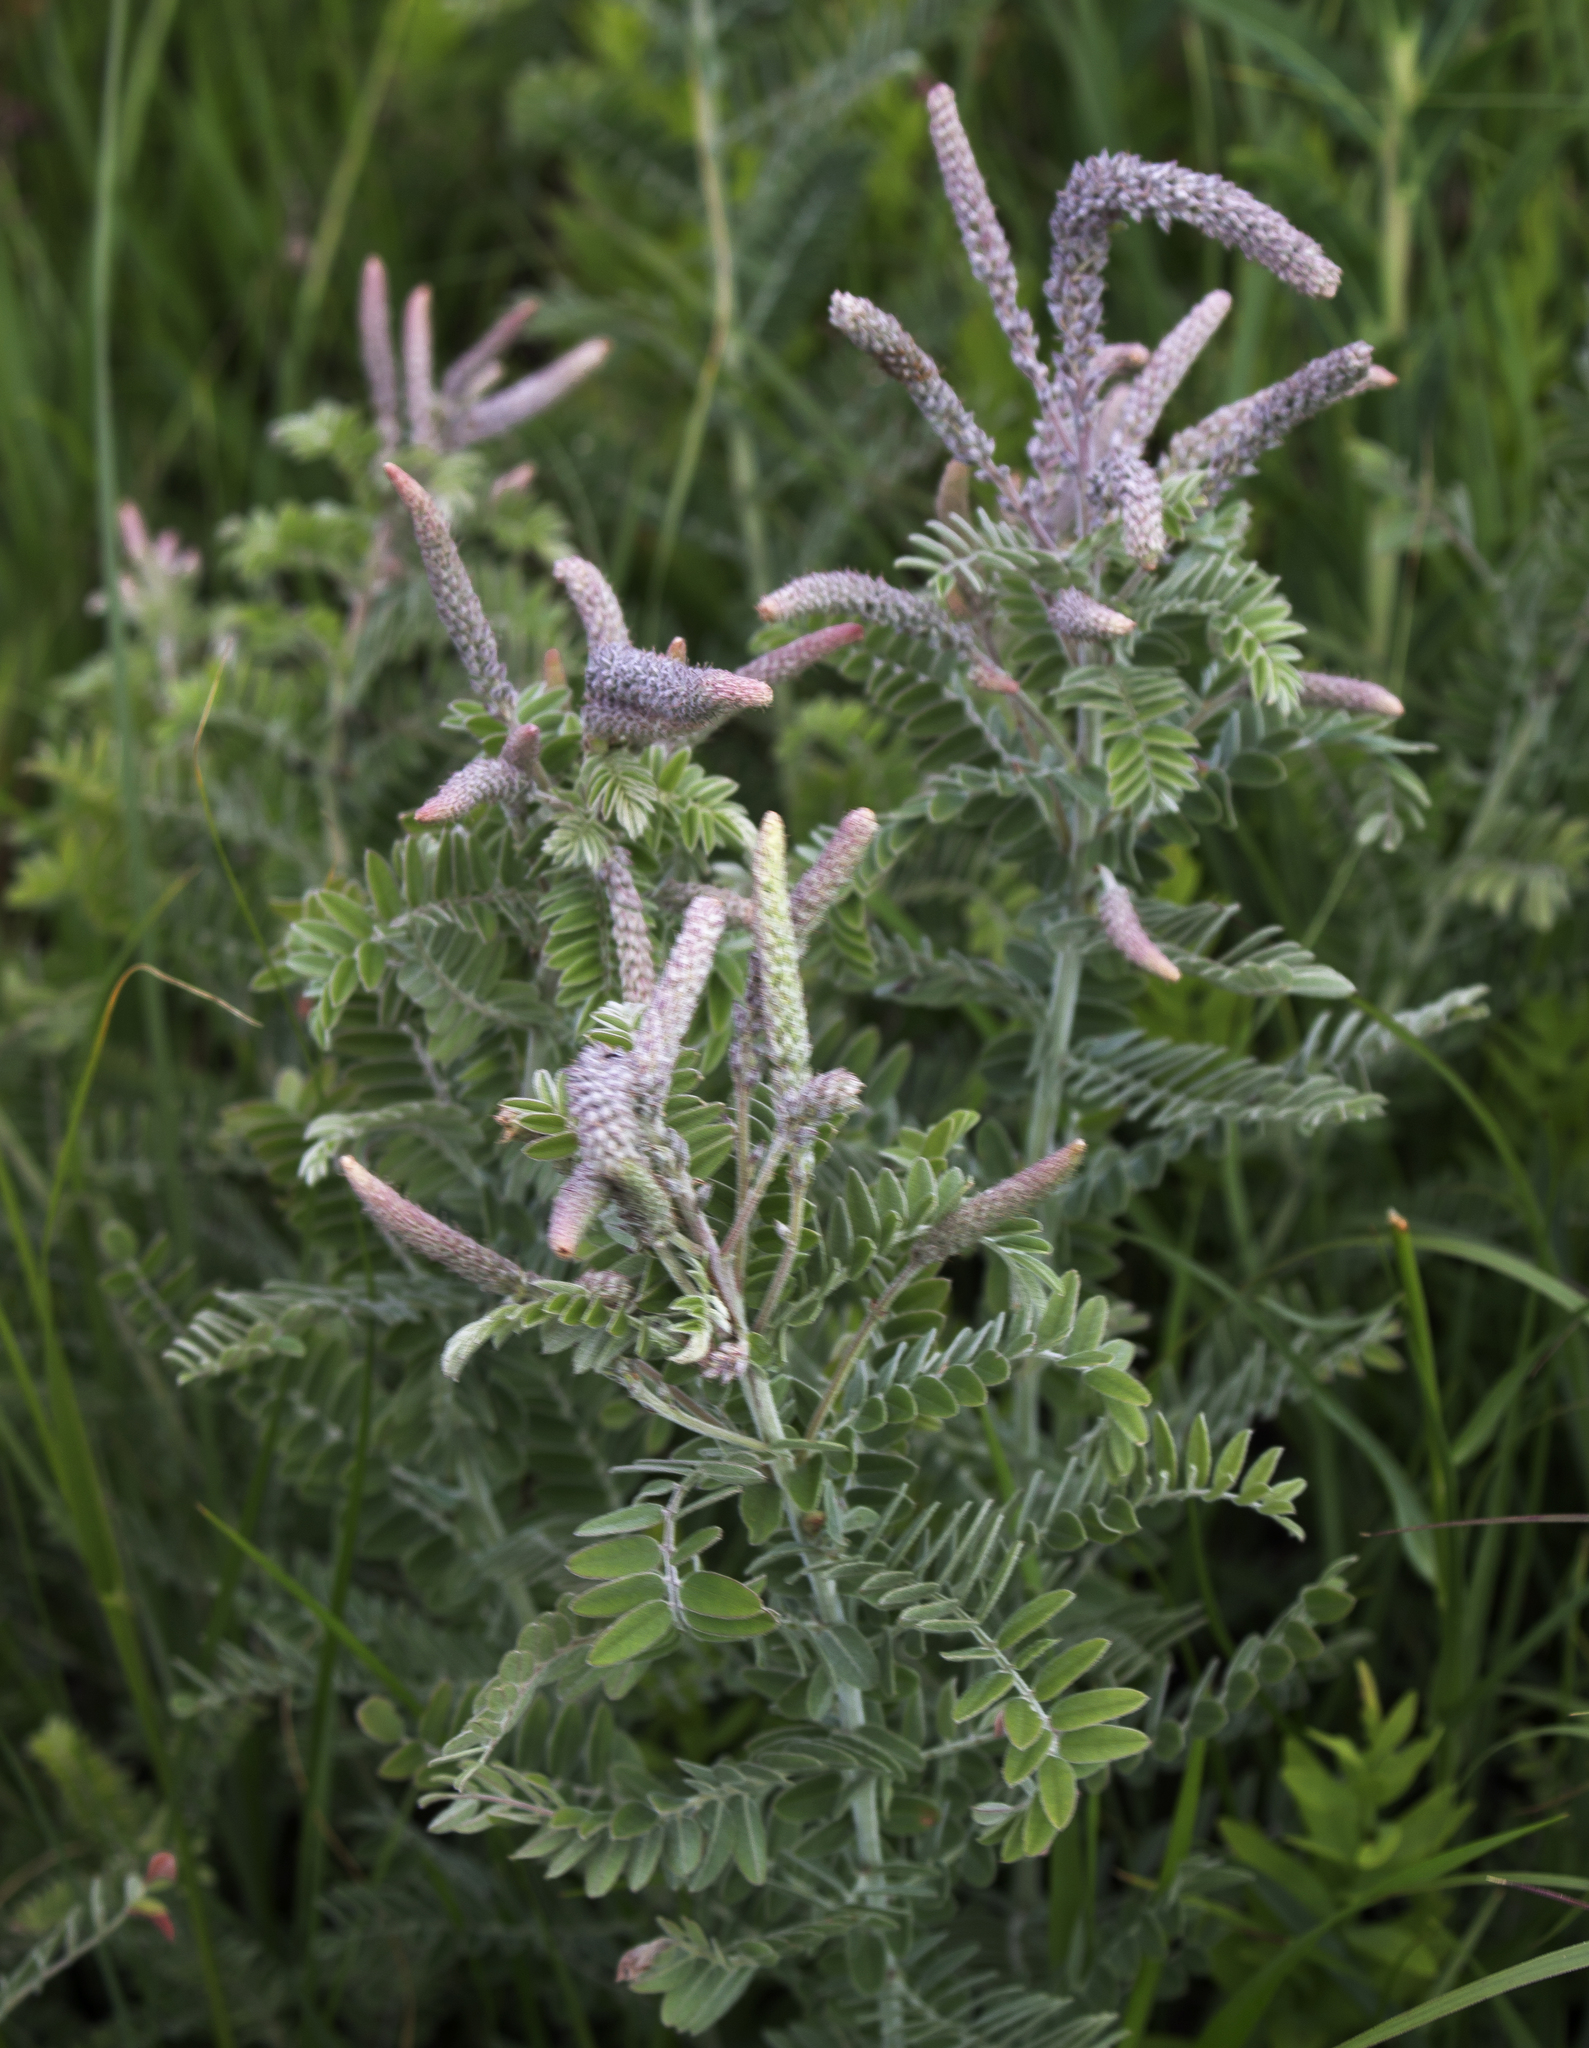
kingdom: Plantae
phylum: Tracheophyta
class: Magnoliopsida
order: Fabales
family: Fabaceae
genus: Amorpha
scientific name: Amorpha canescens
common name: Leadplant
